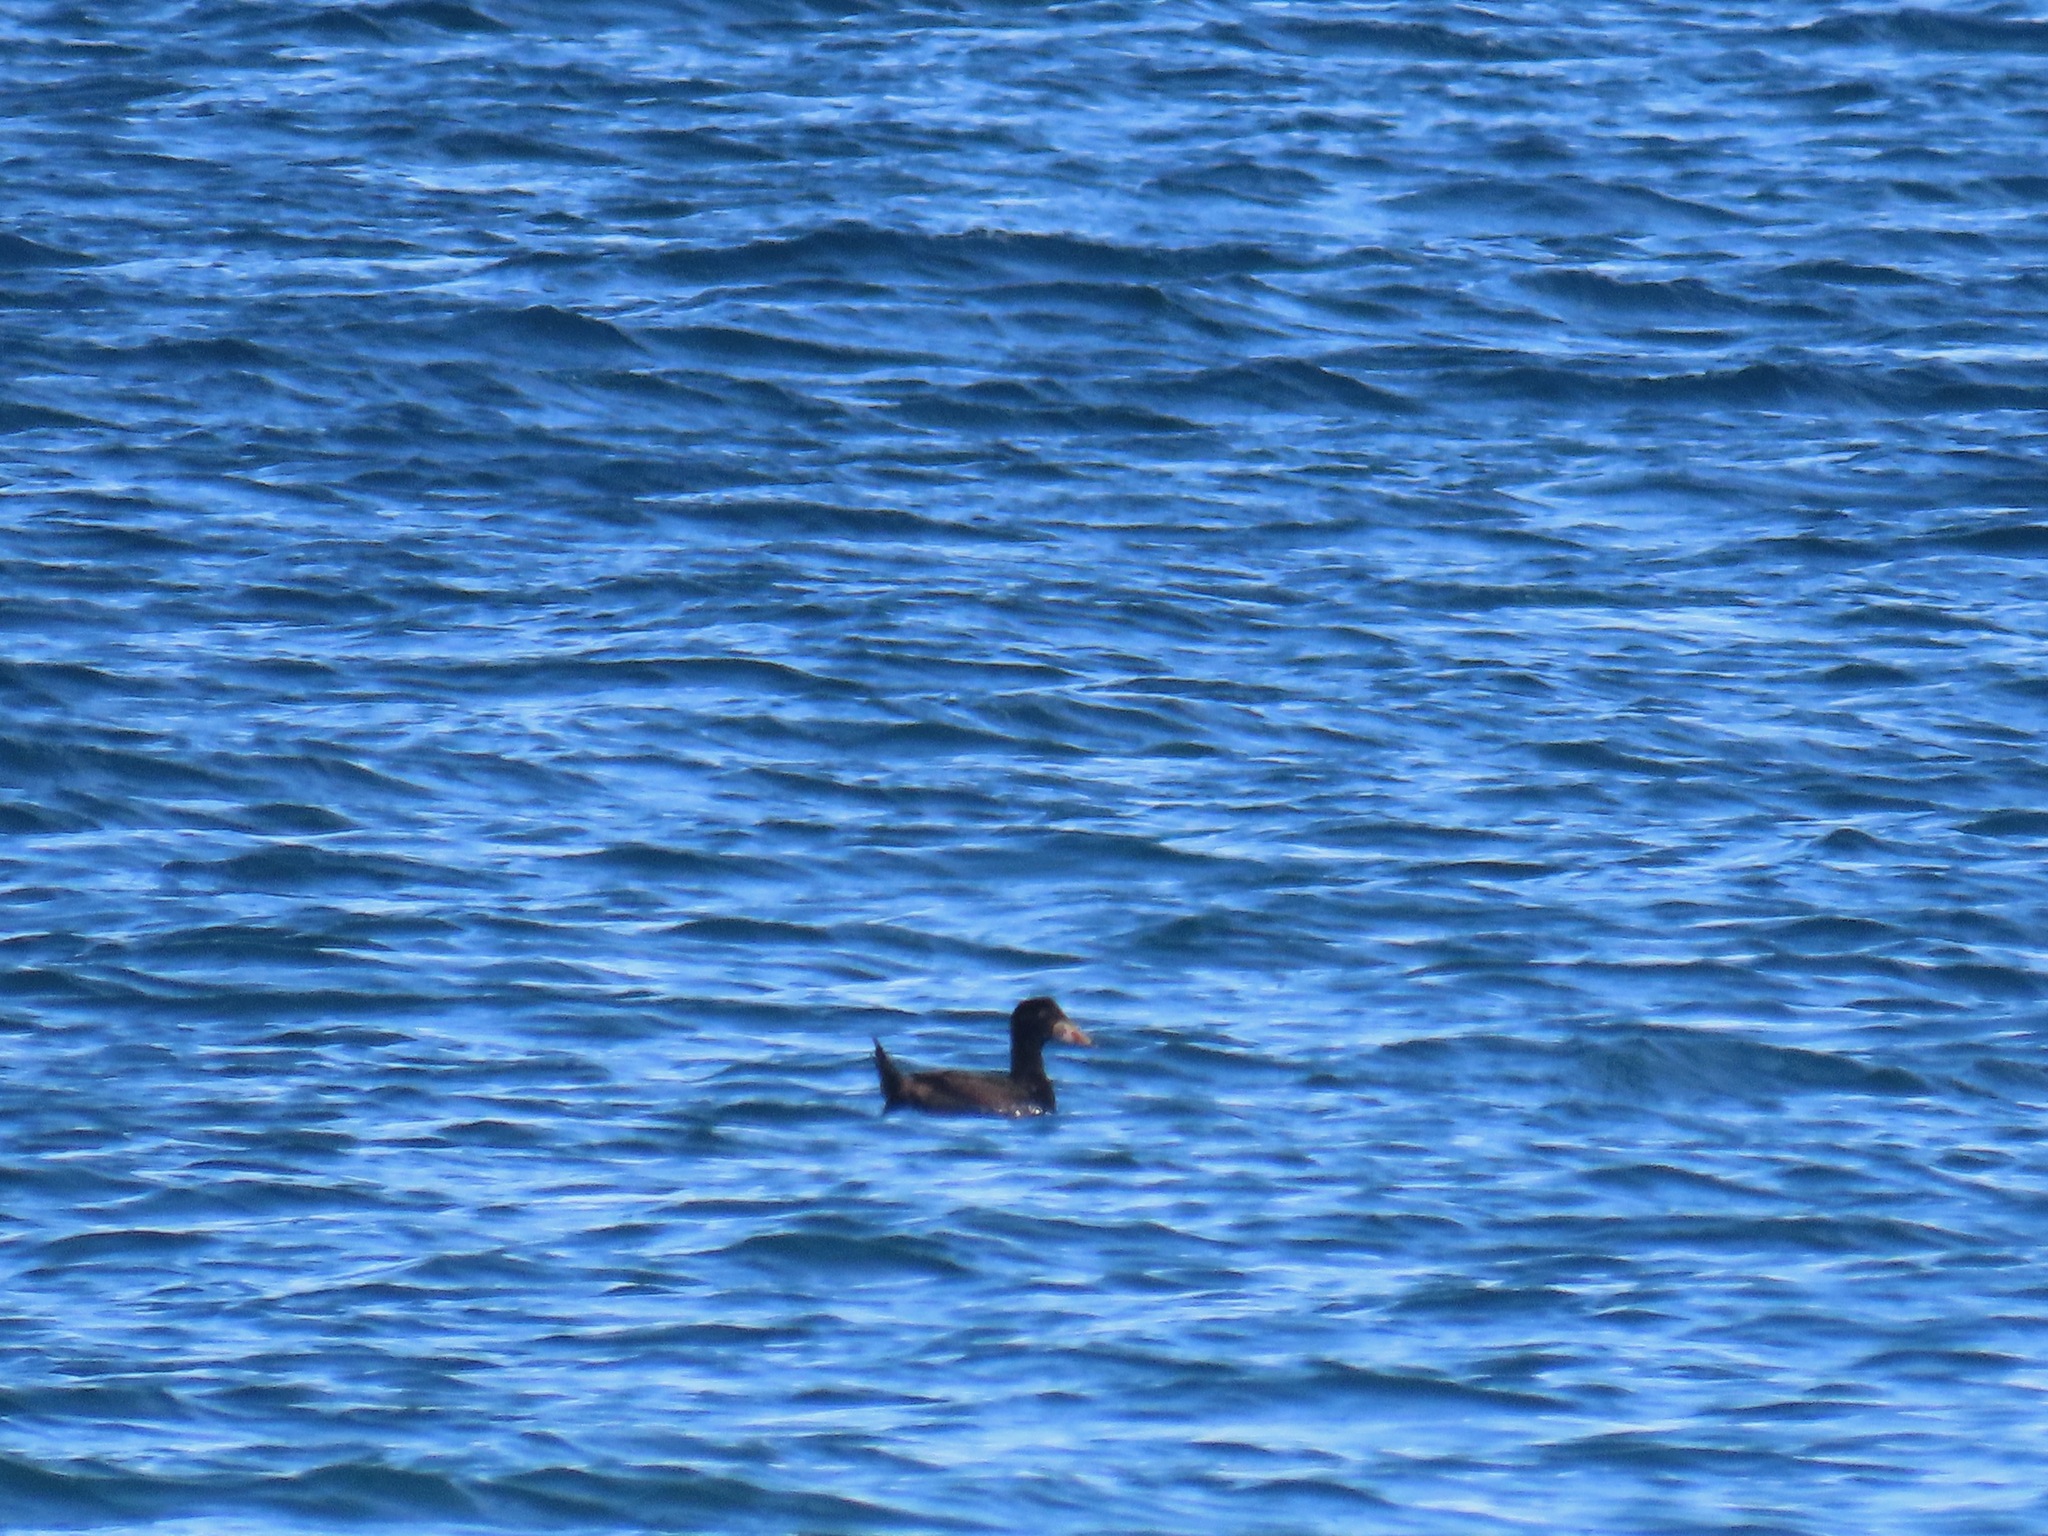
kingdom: Animalia
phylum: Chordata
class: Aves
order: Anseriformes
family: Anatidae
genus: Melanitta
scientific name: Melanitta perspicillata
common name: Surf scoter
